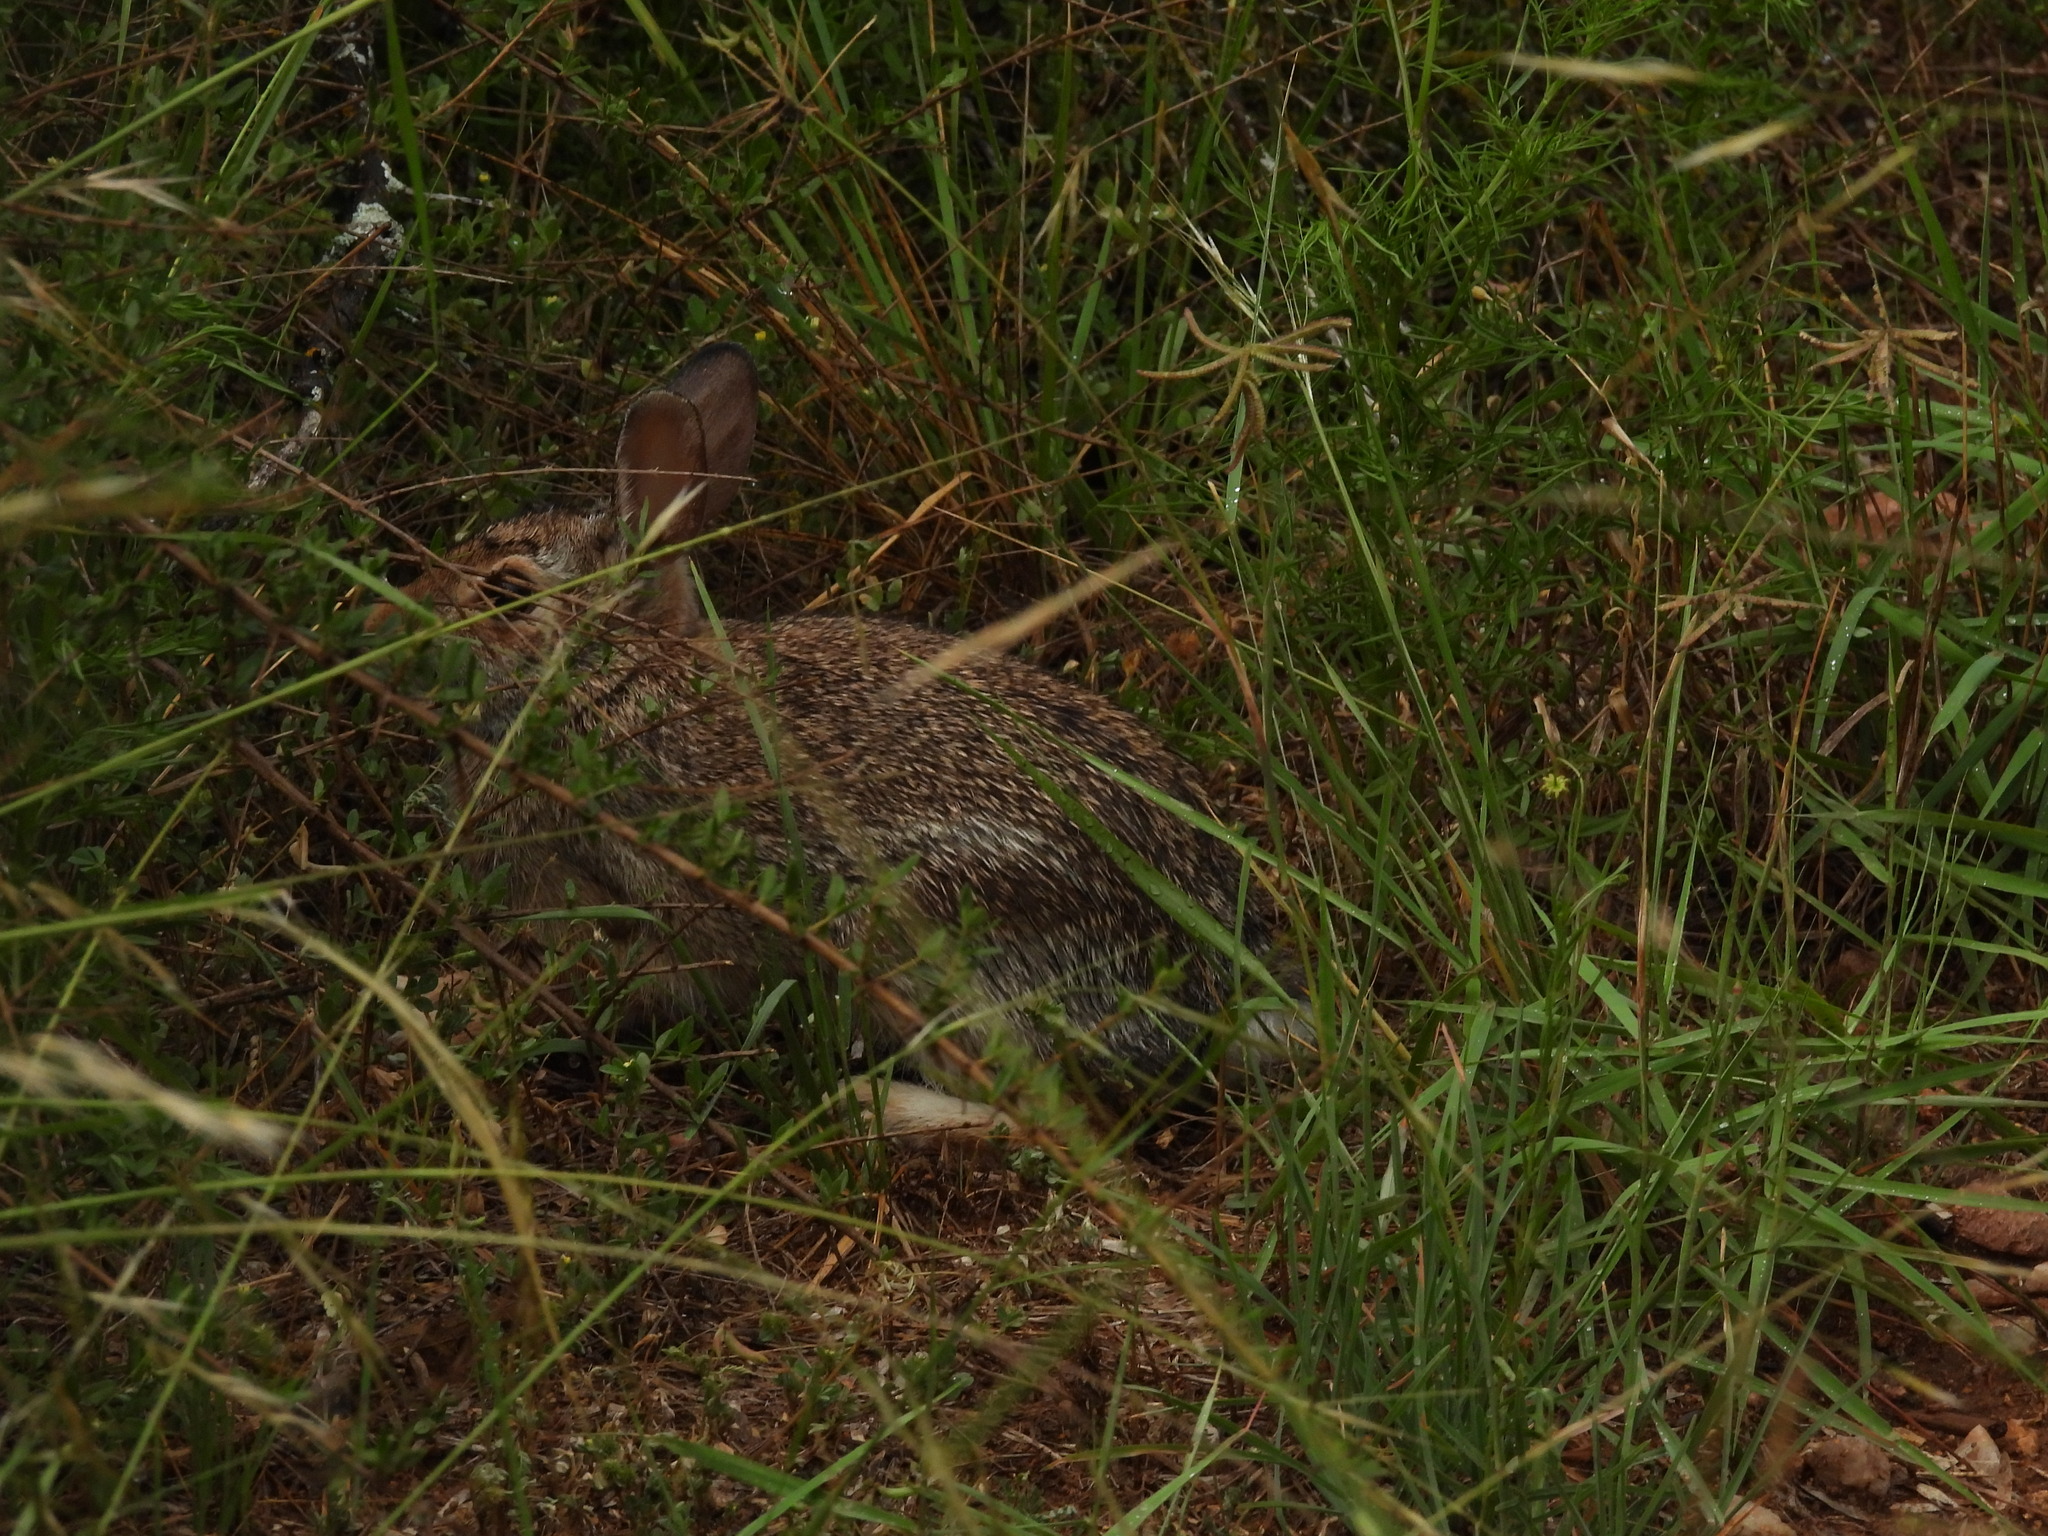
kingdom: Animalia
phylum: Chordata
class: Mammalia
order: Lagomorpha
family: Leporidae
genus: Sylvilagus
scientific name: Sylvilagus floridanus
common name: Eastern cottontail
